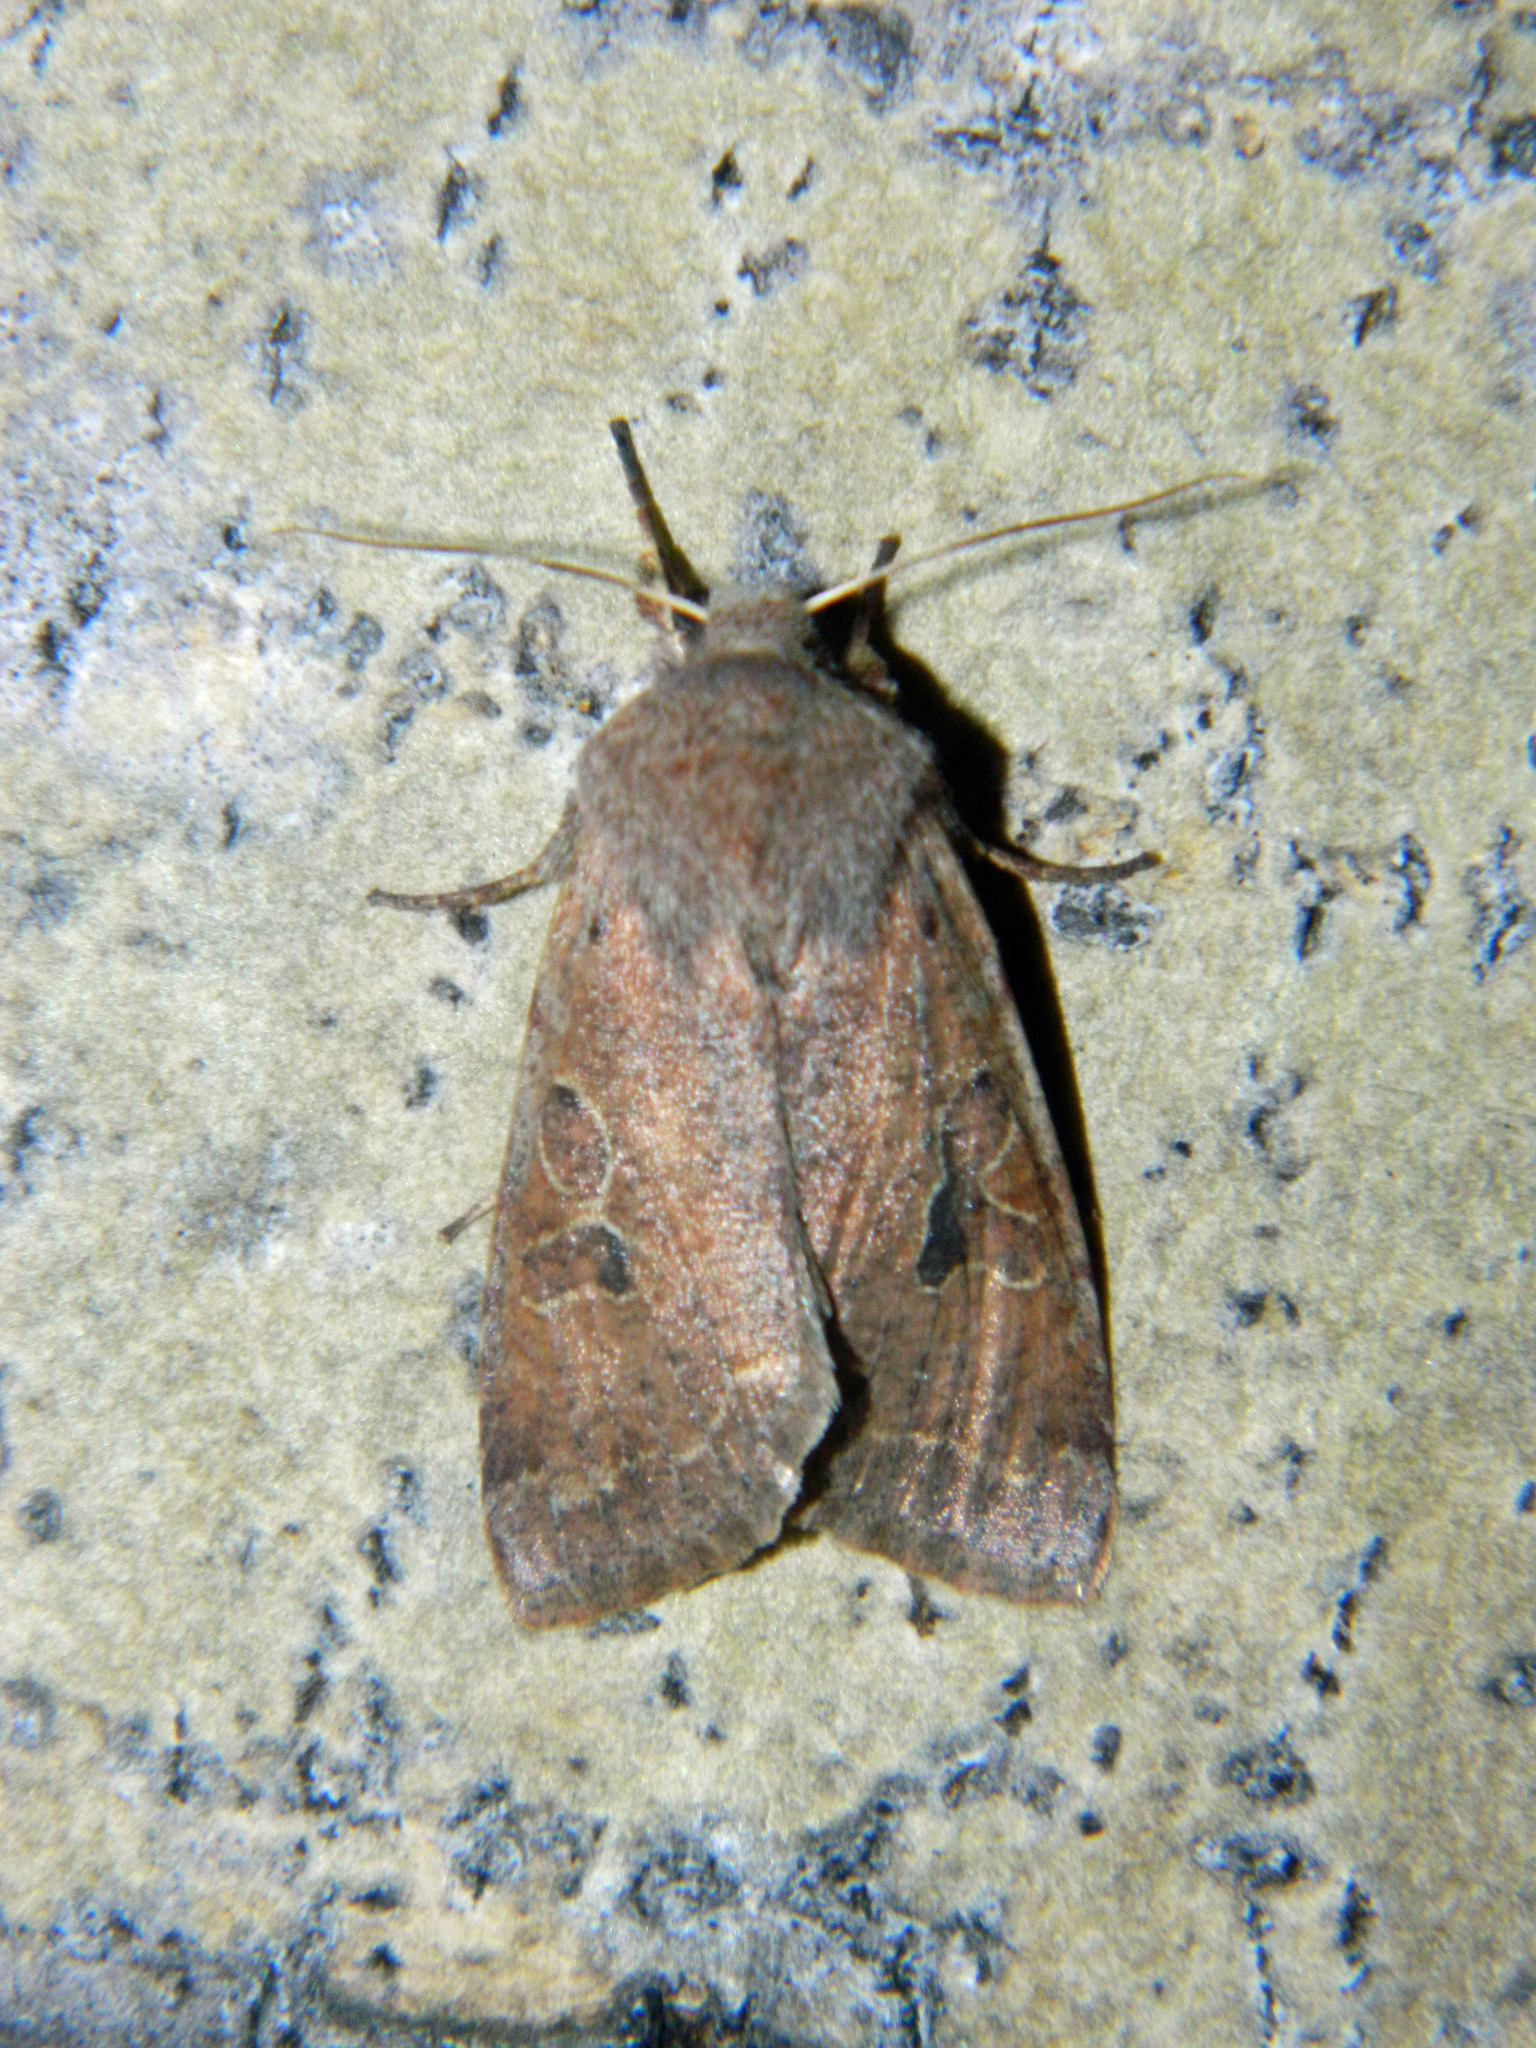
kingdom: Animalia
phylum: Arthropoda
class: Insecta
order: Lepidoptera
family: Noctuidae
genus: Orthosia
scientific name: Orthosia hibisci
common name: Green fruitworm
